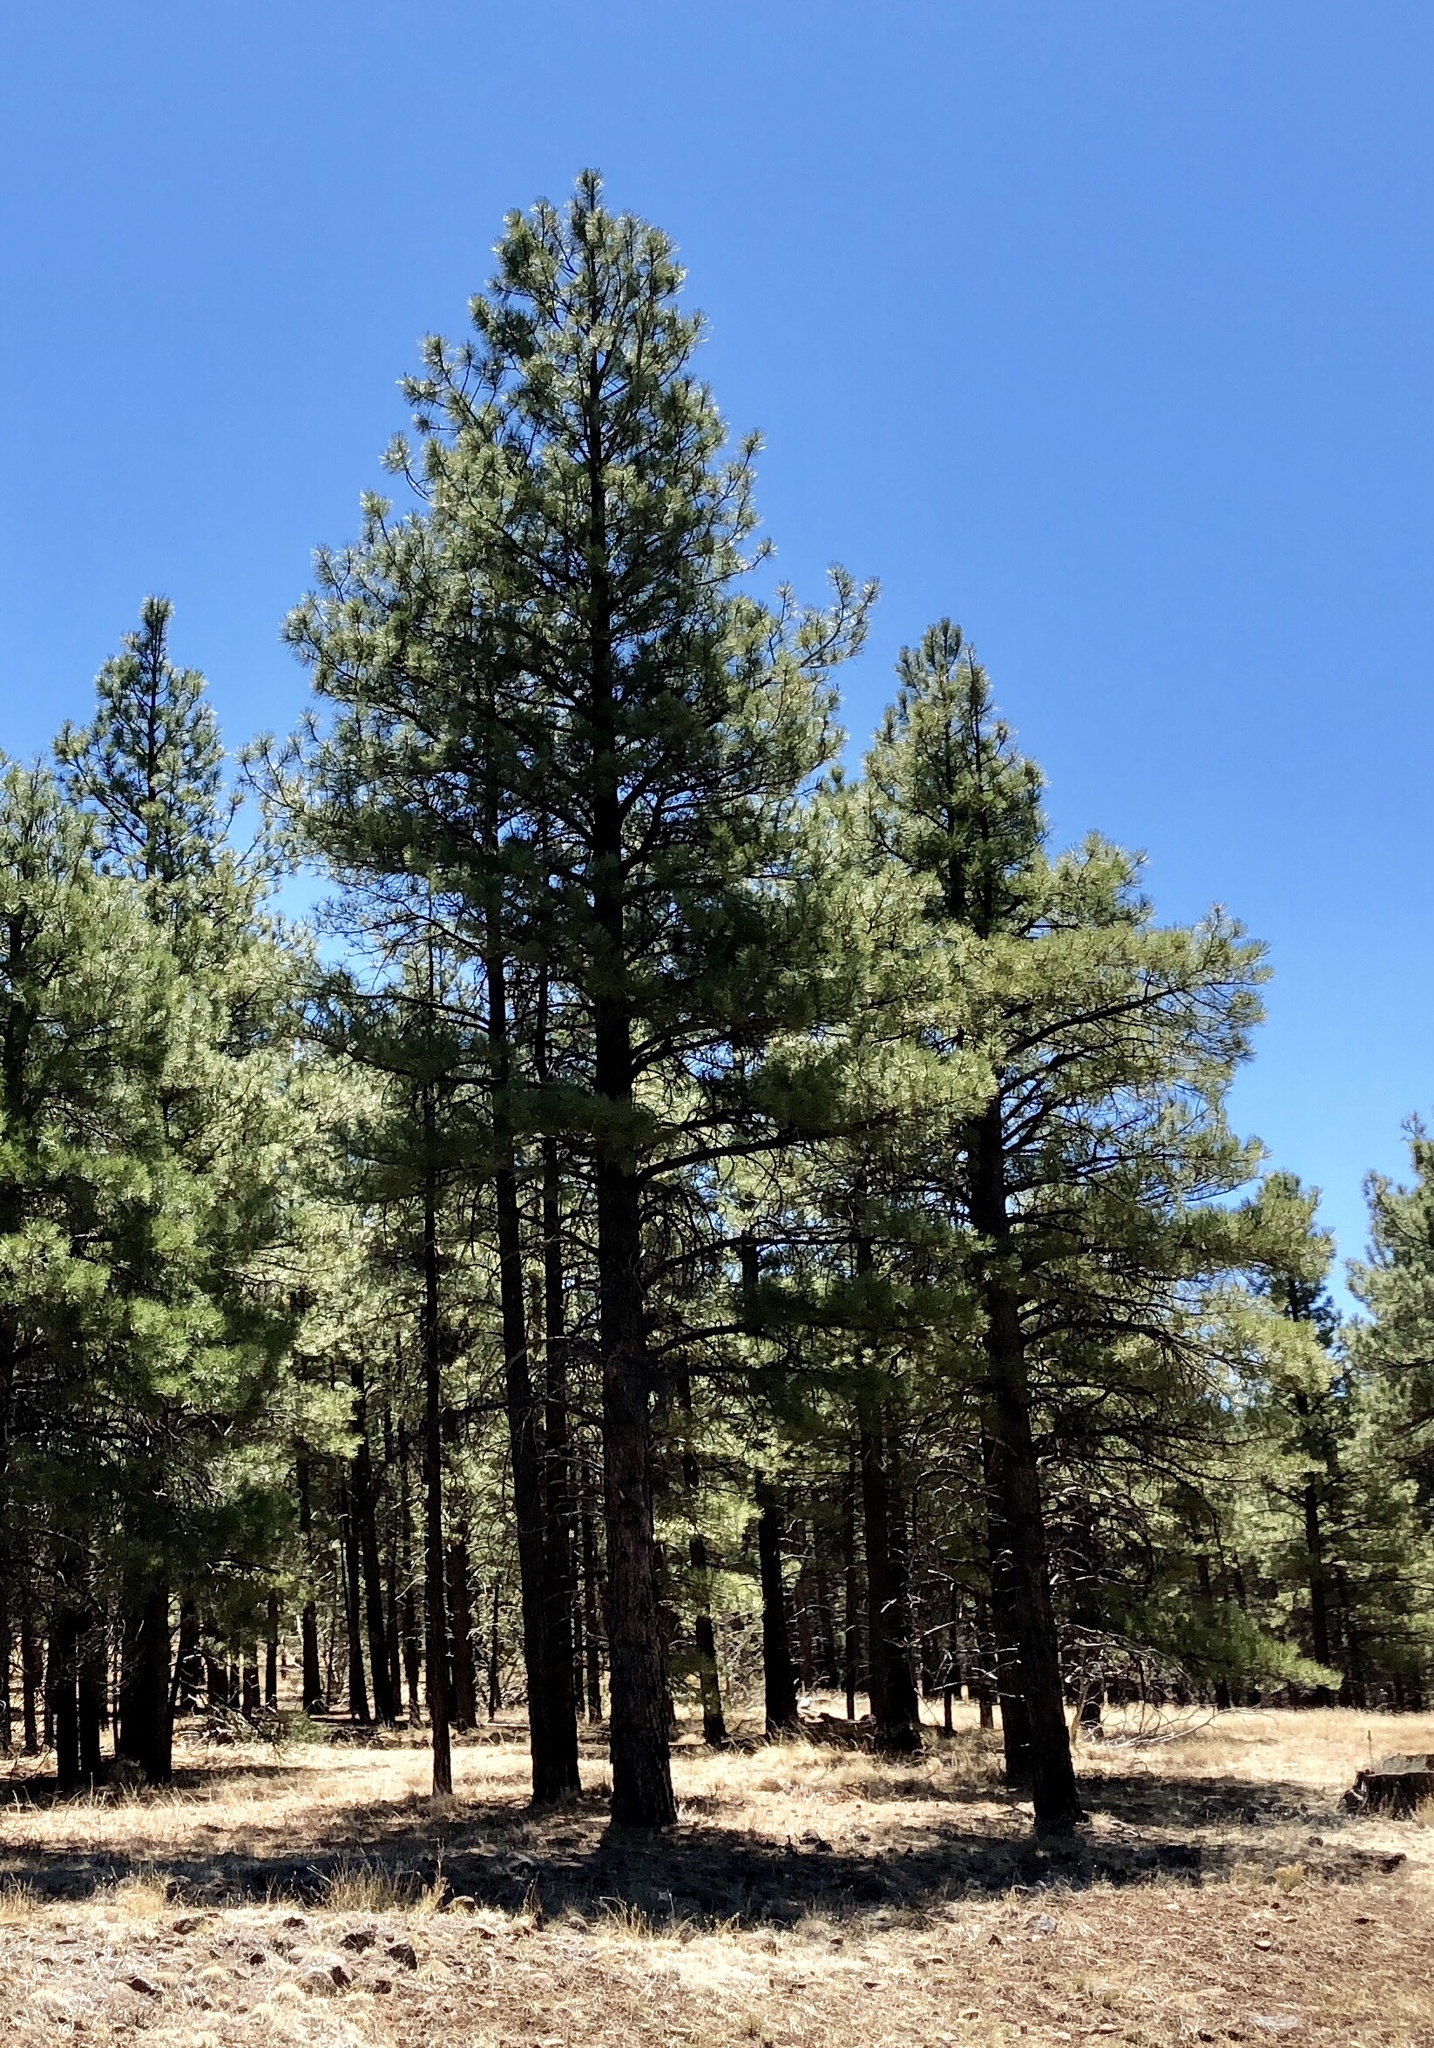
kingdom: Plantae
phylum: Tracheophyta
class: Pinopsida
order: Pinales
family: Pinaceae
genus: Pinus
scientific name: Pinus ponderosa
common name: Western yellow-pine
